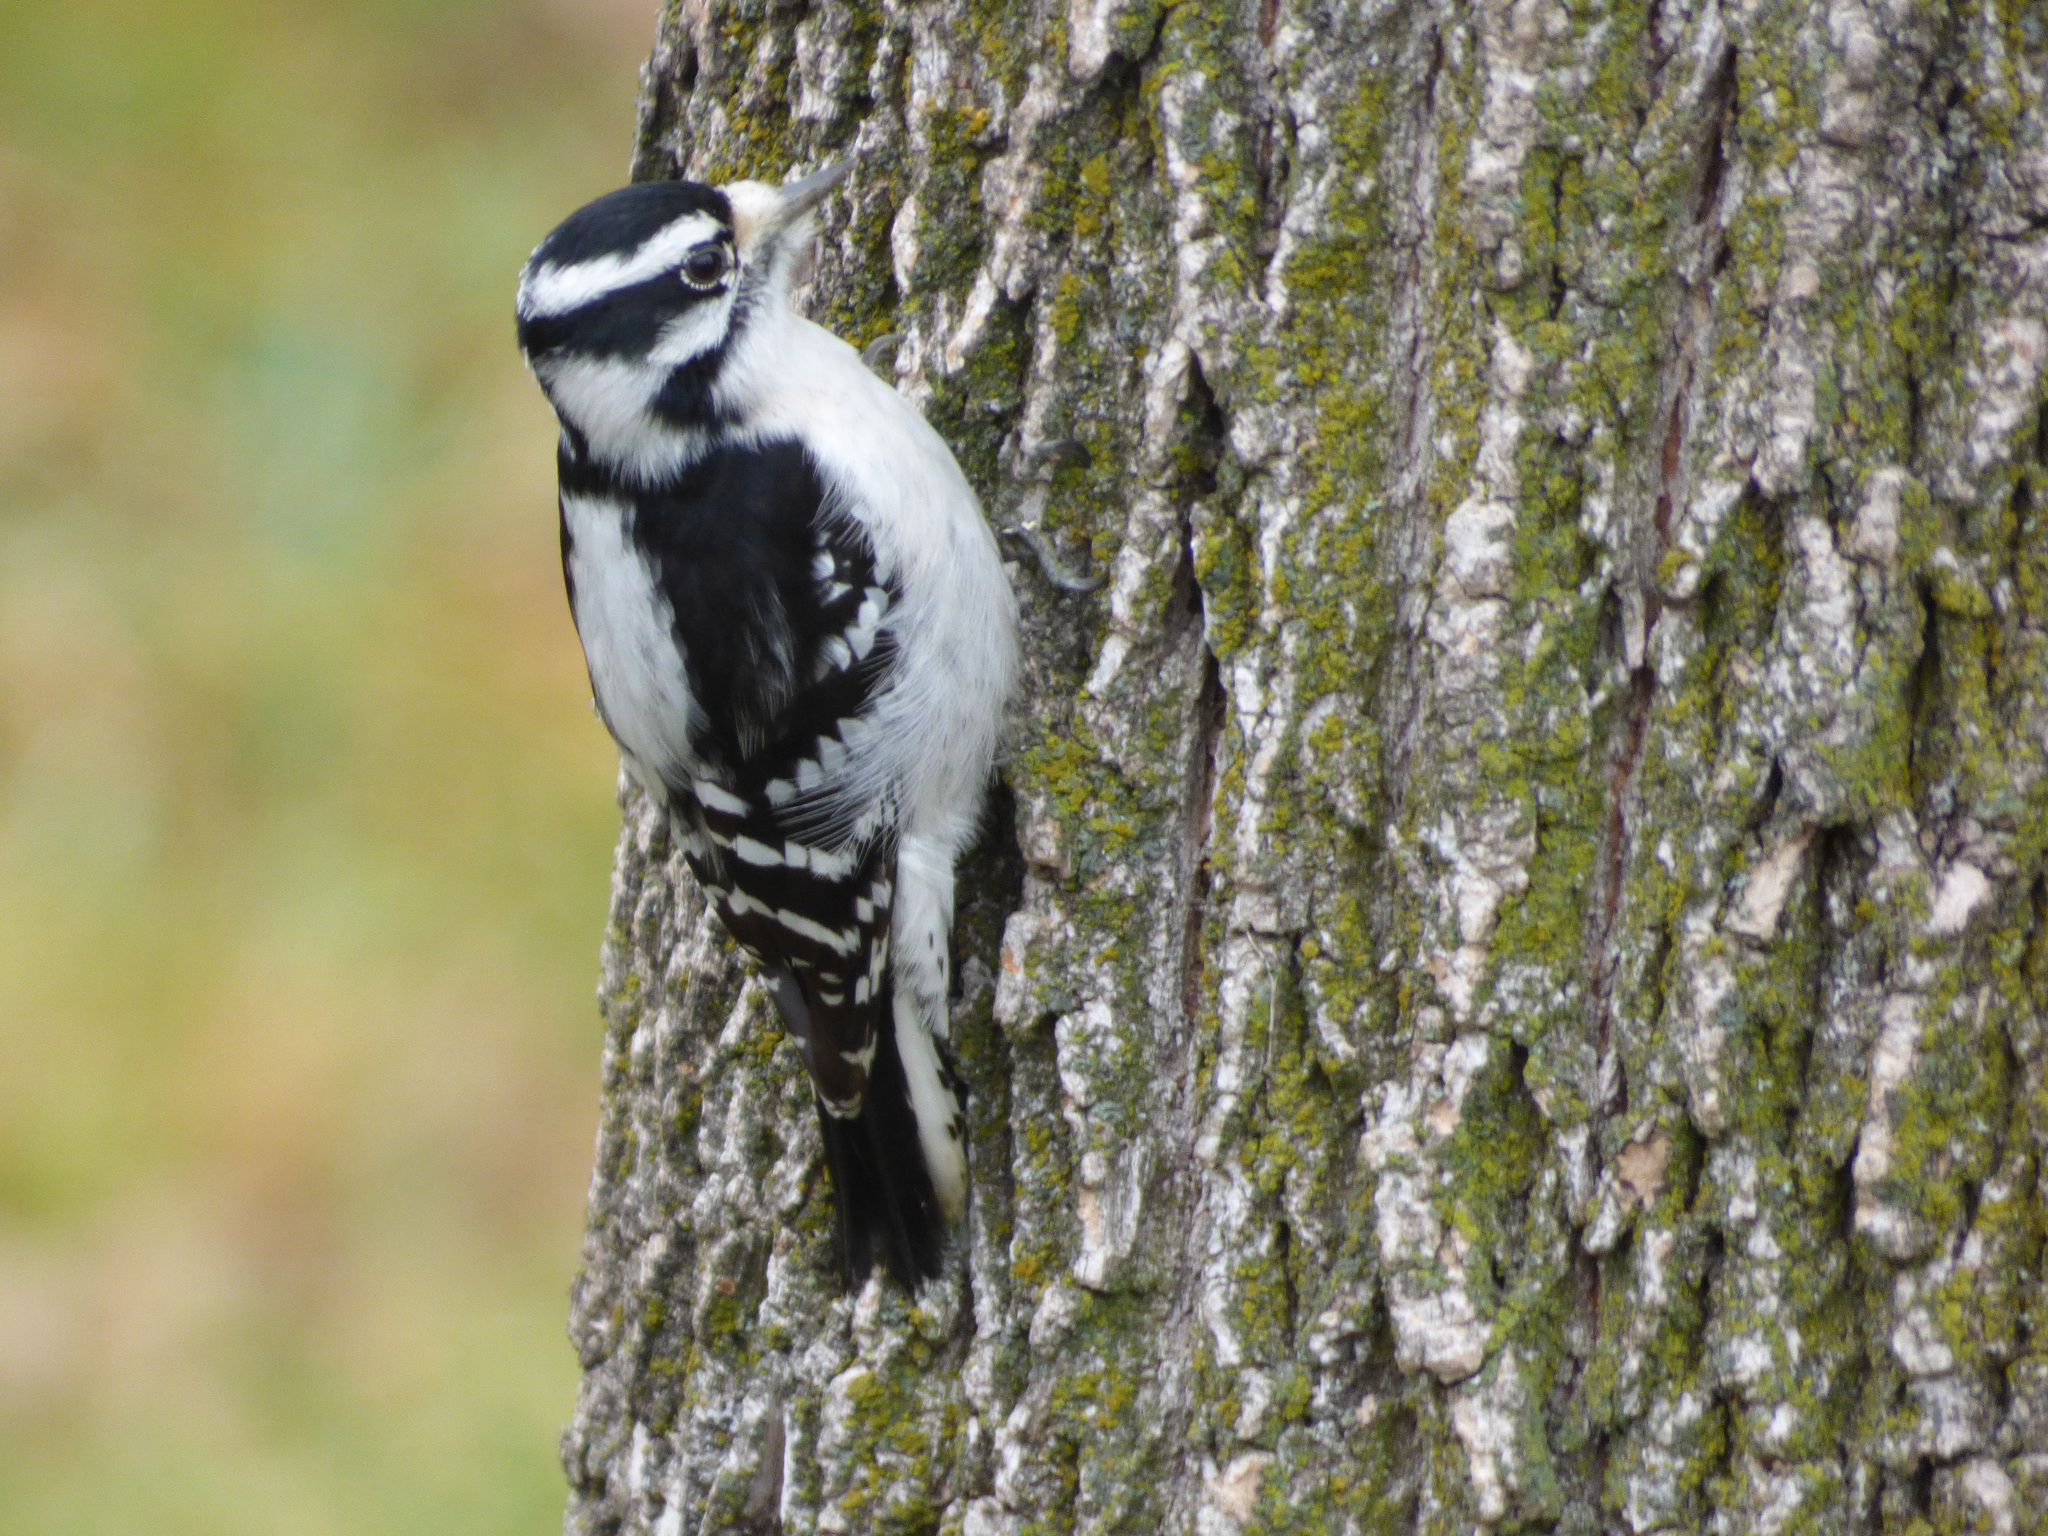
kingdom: Animalia
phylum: Chordata
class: Aves
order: Piciformes
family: Picidae
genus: Dryobates
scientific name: Dryobates pubescens
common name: Downy woodpecker
